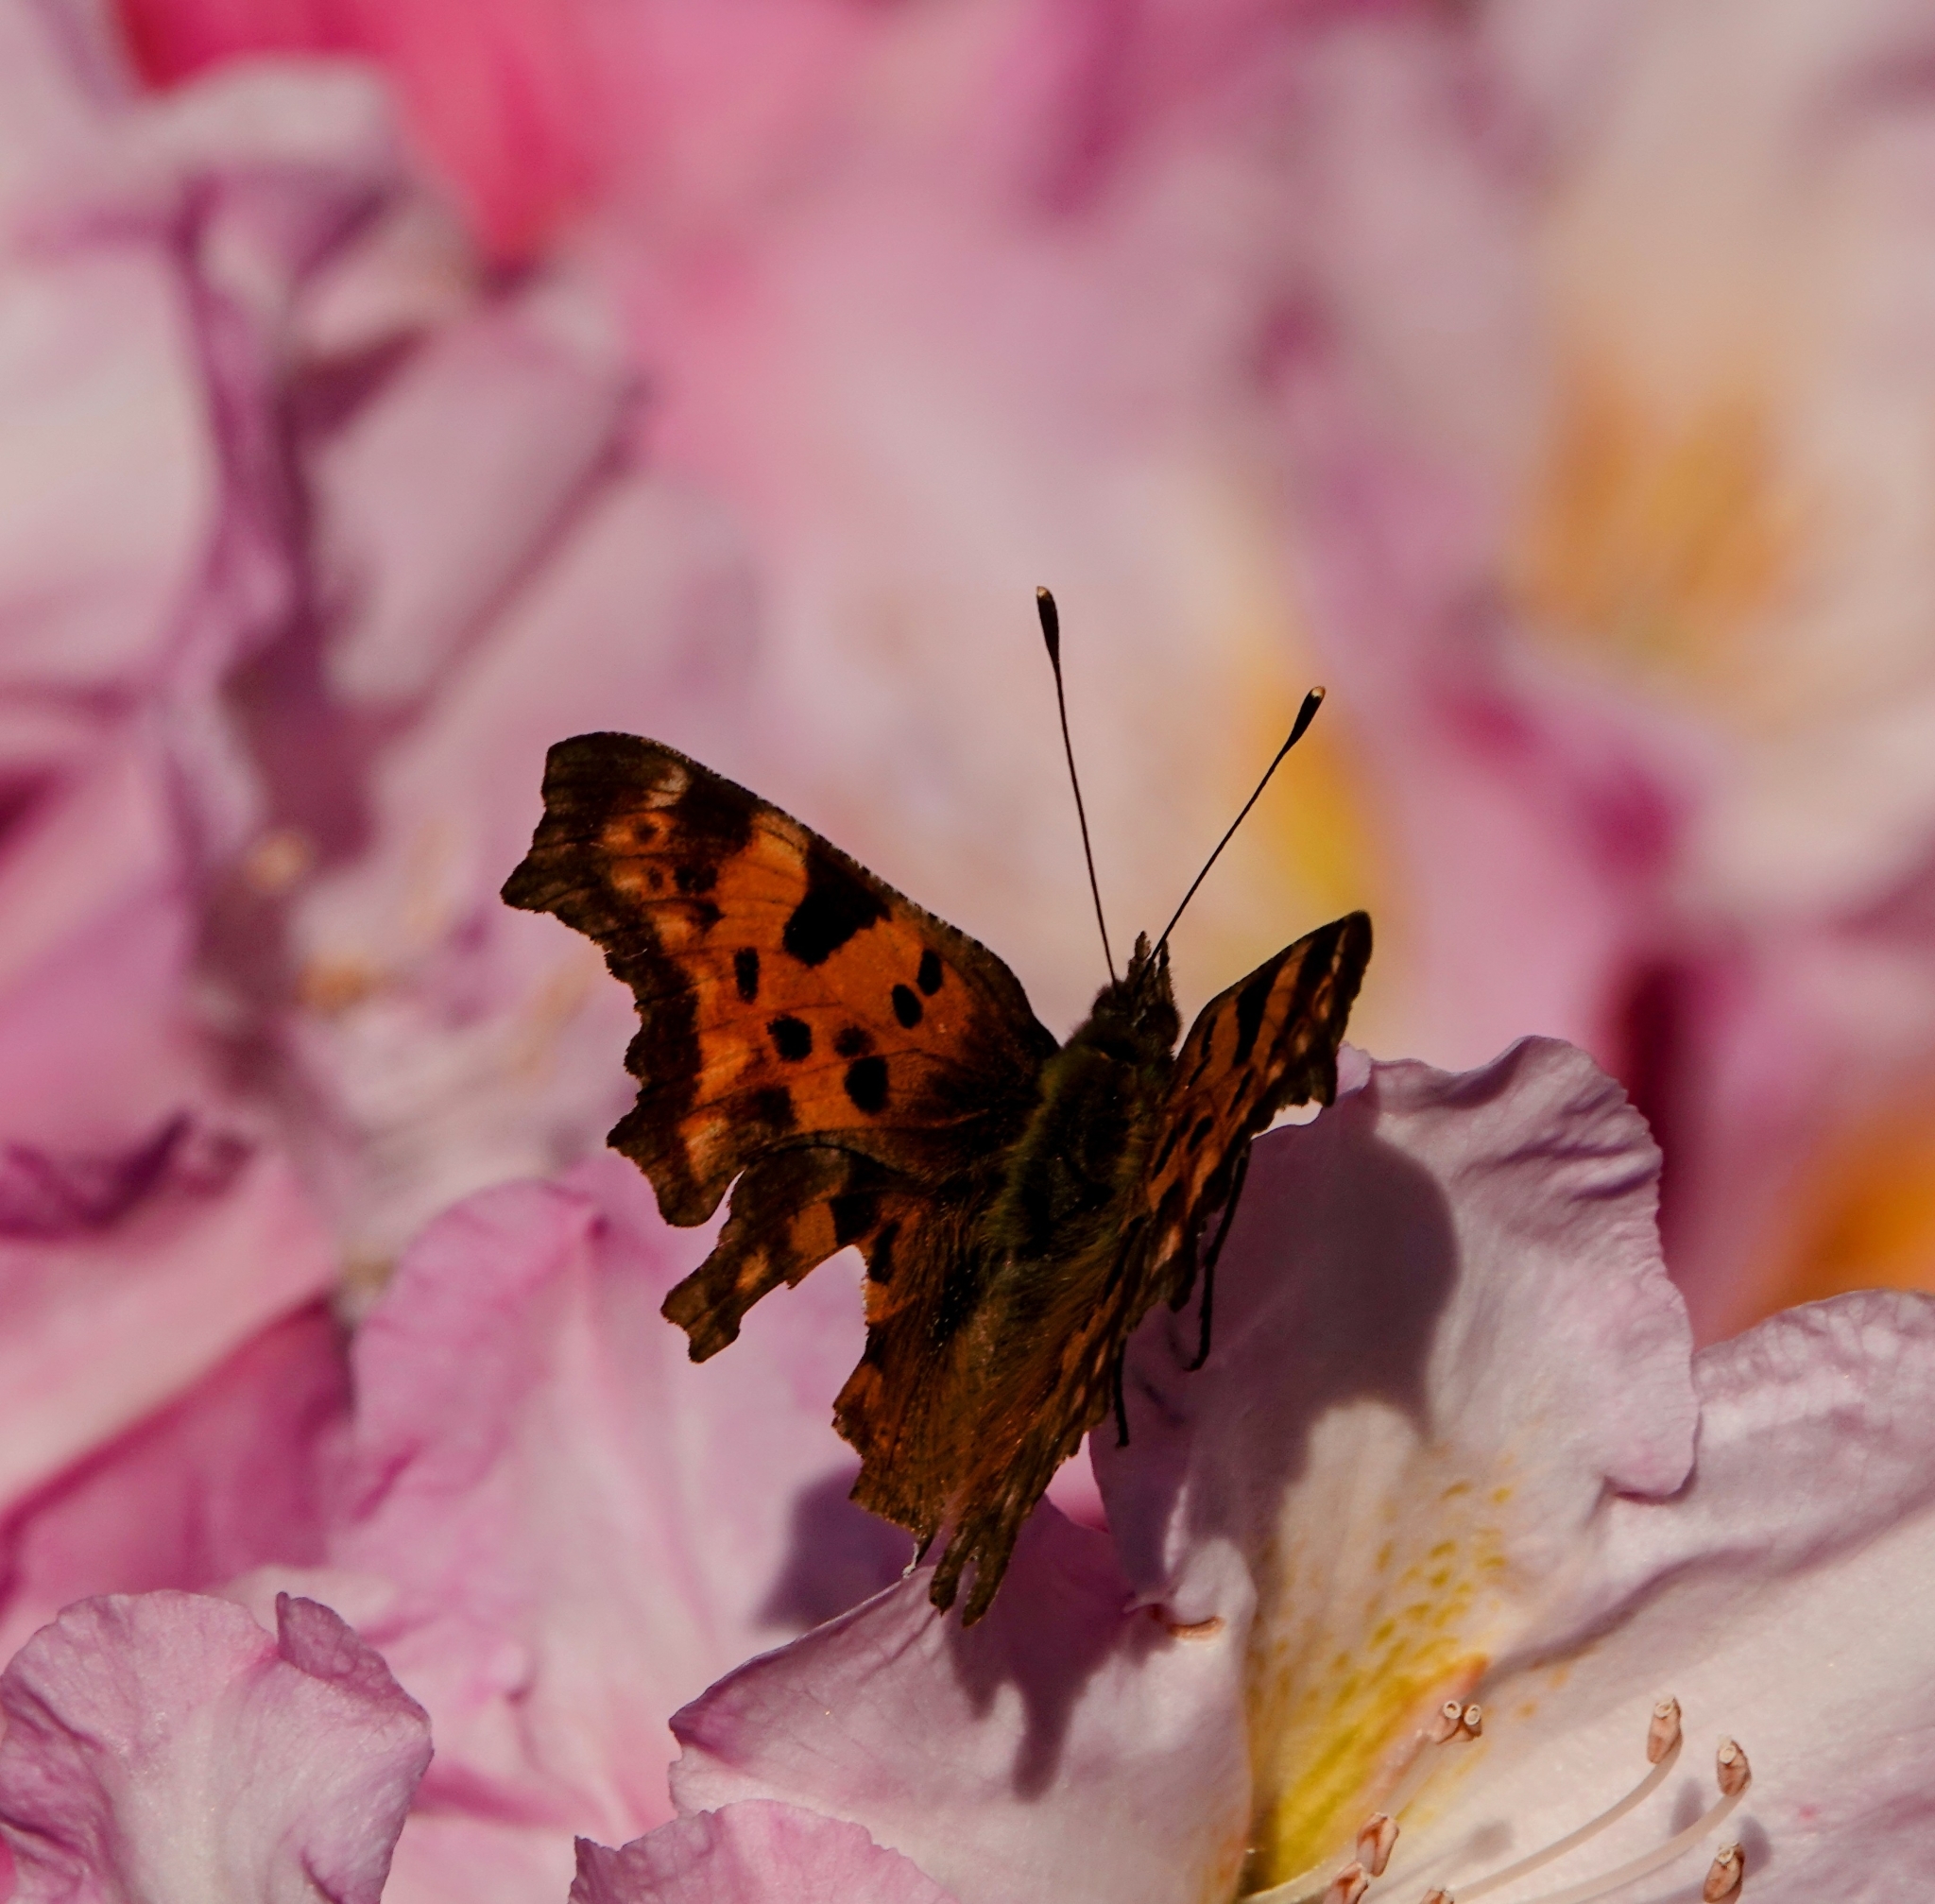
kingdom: Animalia
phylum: Arthropoda
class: Insecta
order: Lepidoptera
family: Nymphalidae
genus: Polygonia
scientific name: Polygonia c-album
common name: Comma
